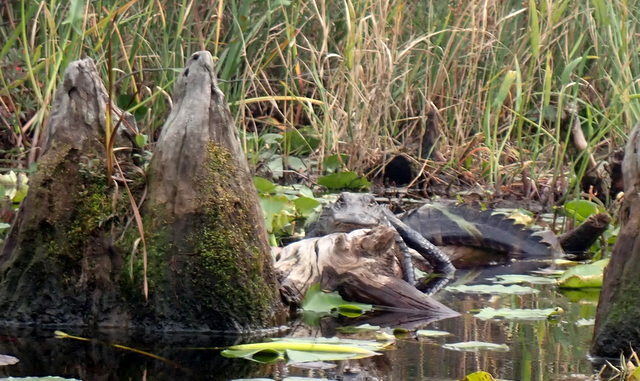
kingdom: Animalia
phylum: Chordata
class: Crocodylia
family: Alligatoridae
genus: Alligator
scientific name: Alligator mississippiensis
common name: American alligator
